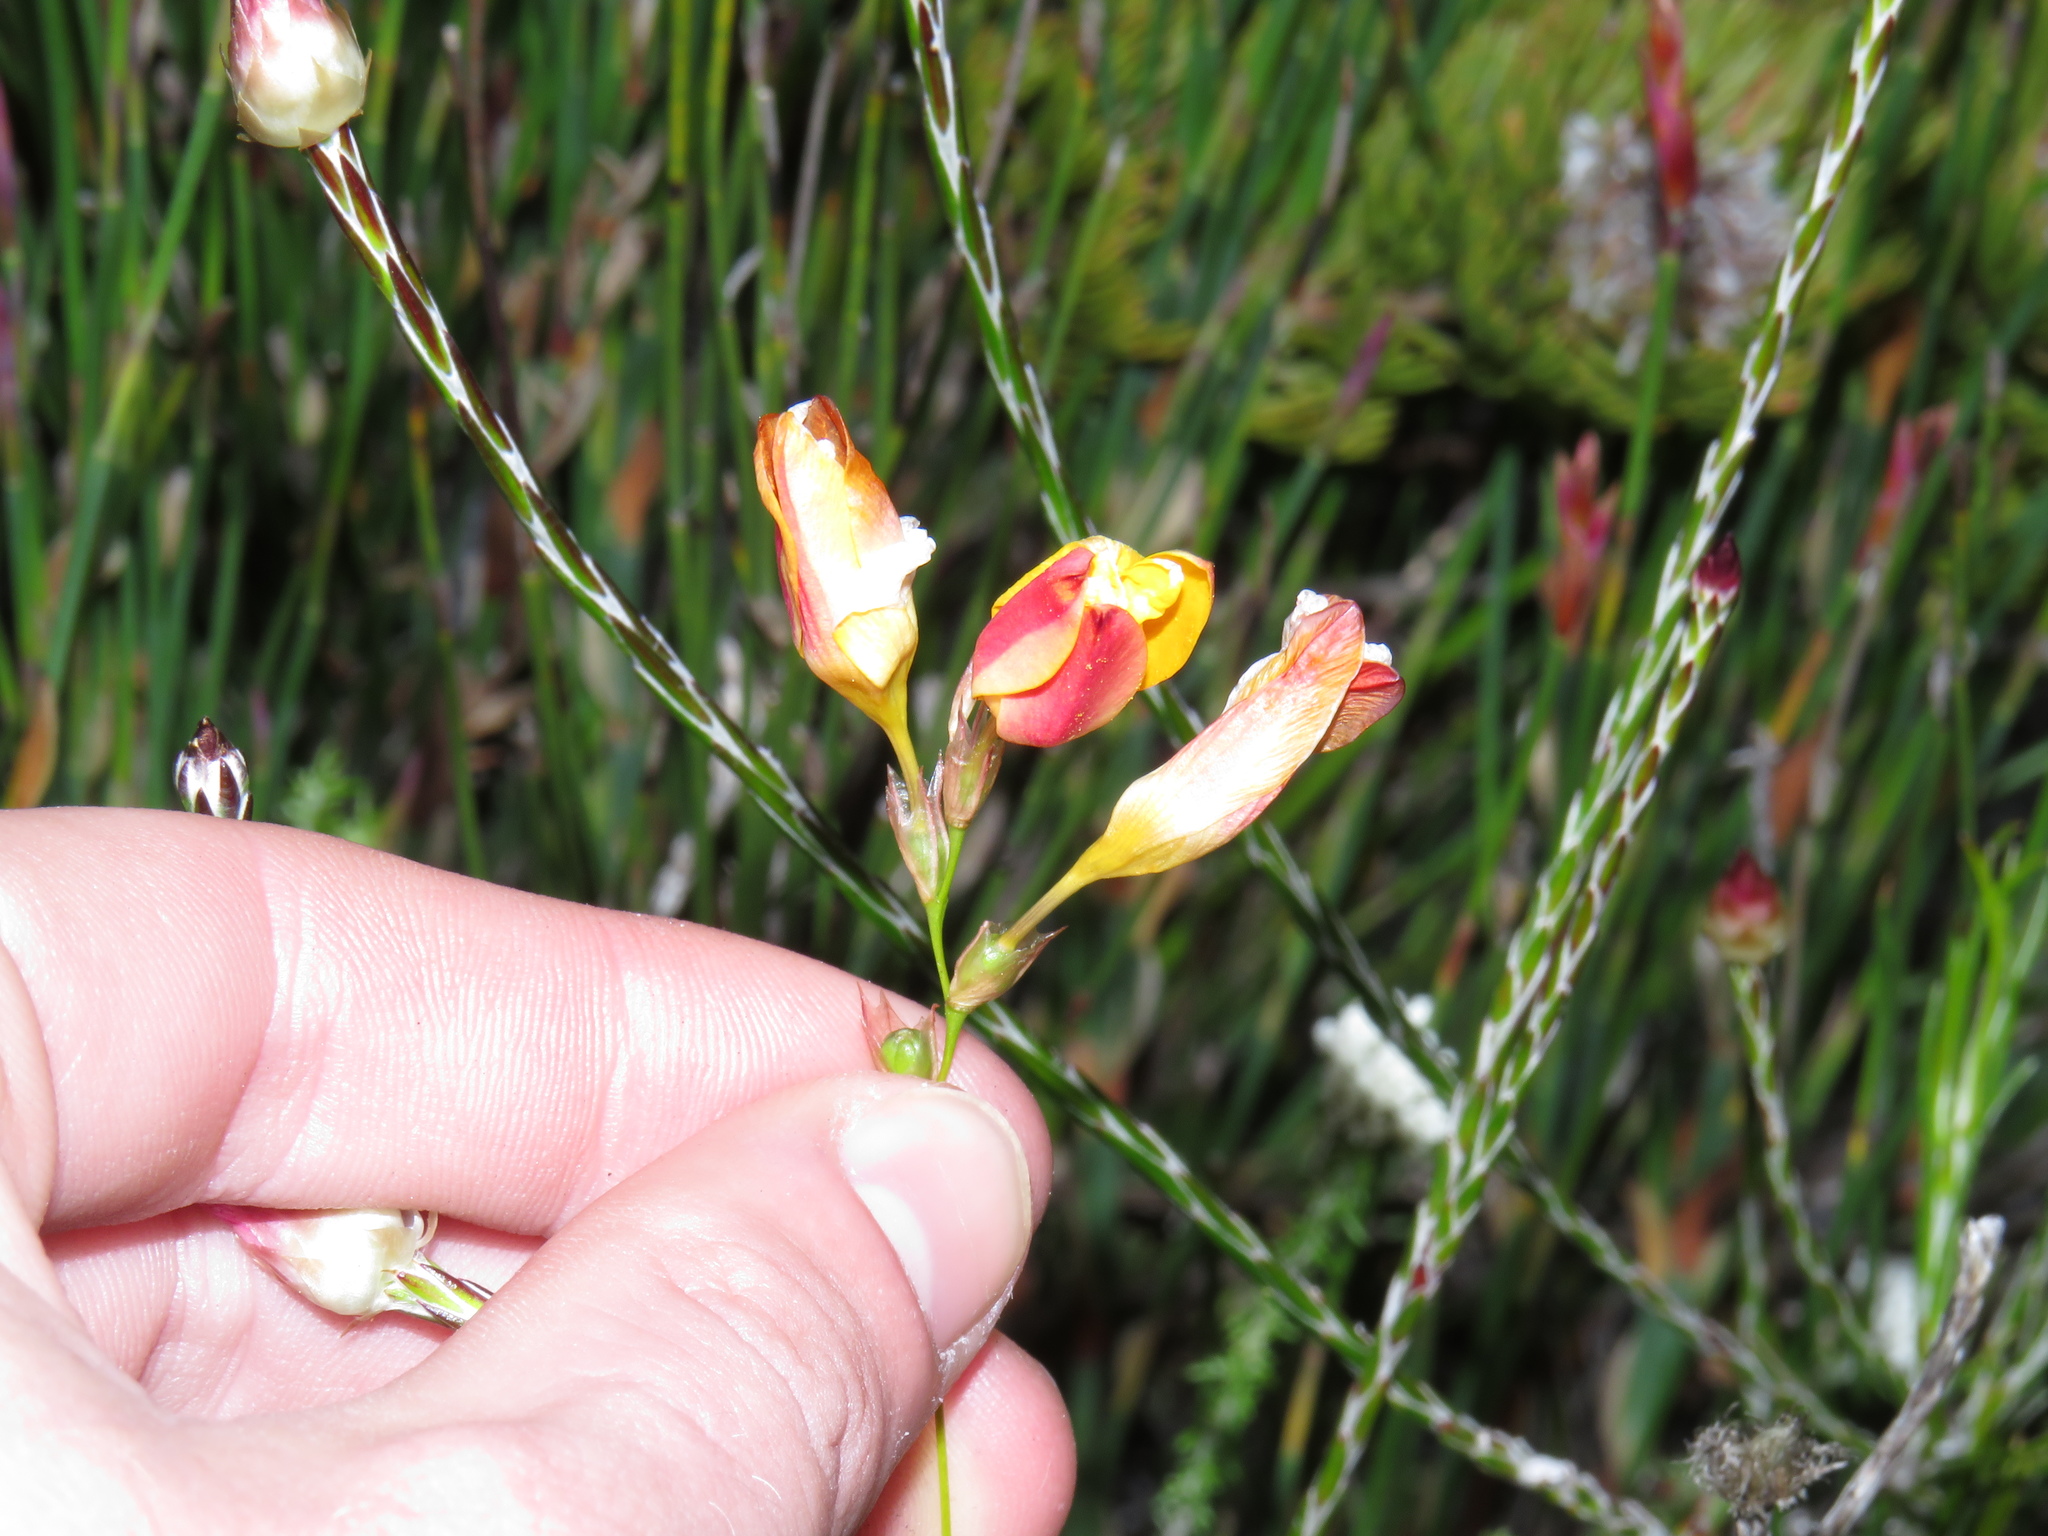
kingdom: Plantae
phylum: Tracheophyta
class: Liliopsida
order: Asparagales
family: Iridaceae
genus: Ixia
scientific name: Ixia dubia
